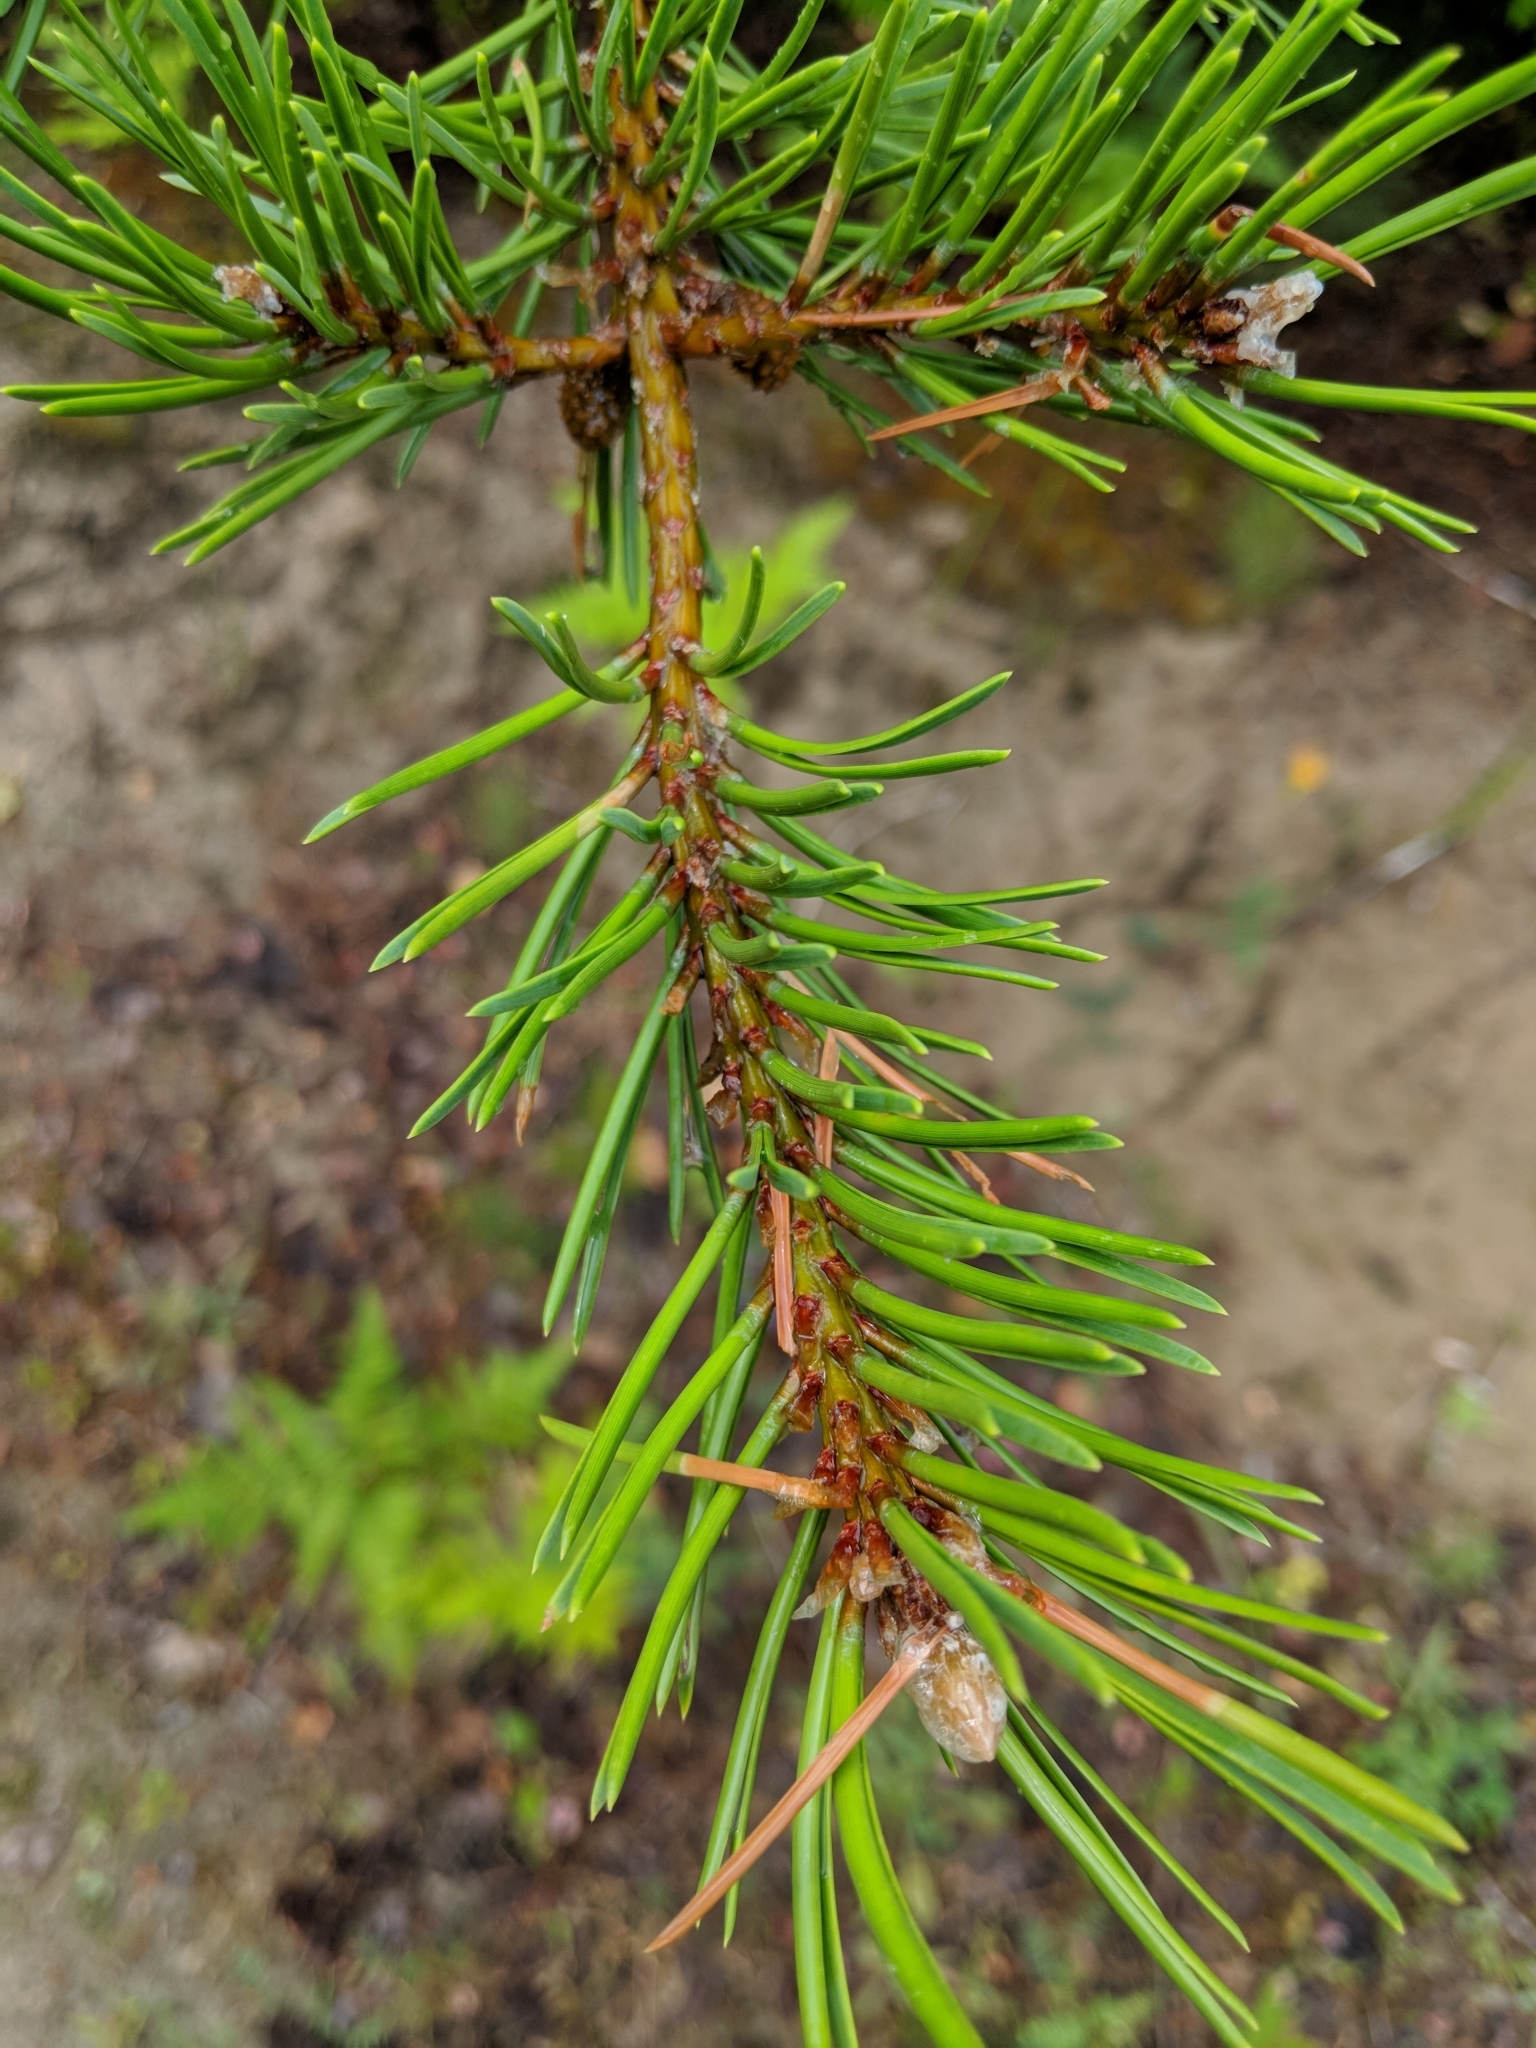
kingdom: Plantae
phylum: Tracheophyta
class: Pinopsida
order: Pinales
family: Pinaceae
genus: Pinus
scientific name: Pinus banksiana
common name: Jack pine
